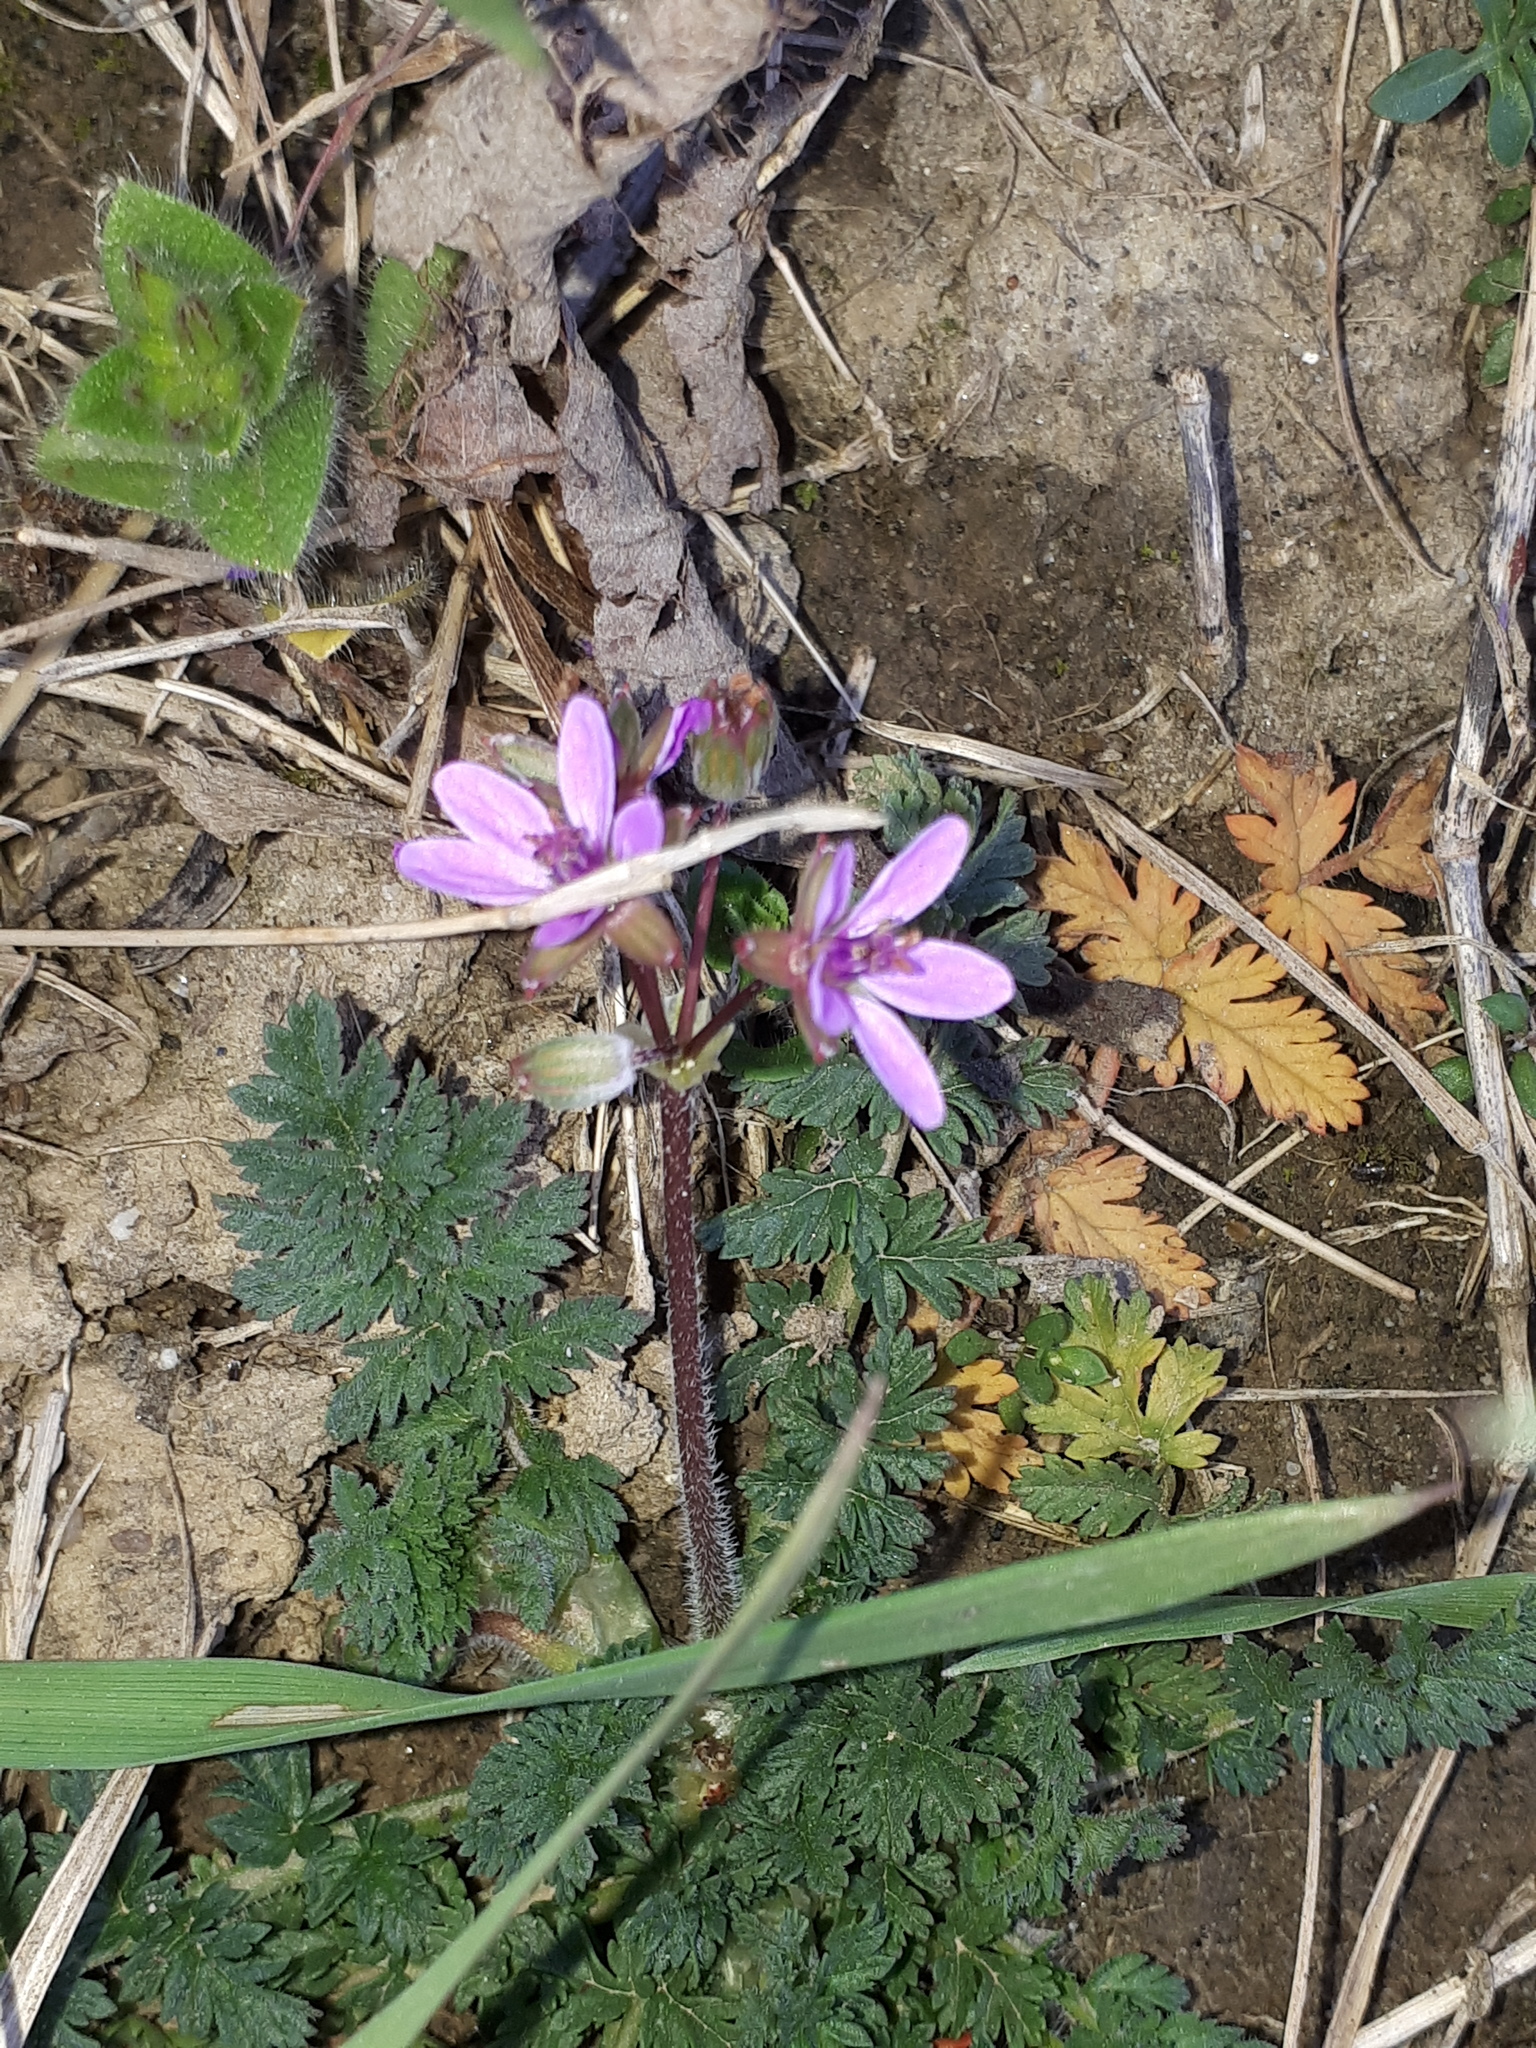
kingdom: Plantae
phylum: Tracheophyta
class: Magnoliopsida
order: Geraniales
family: Geraniaceae
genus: Erodium
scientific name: Erodium cicutarium
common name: Common stork's-bill
